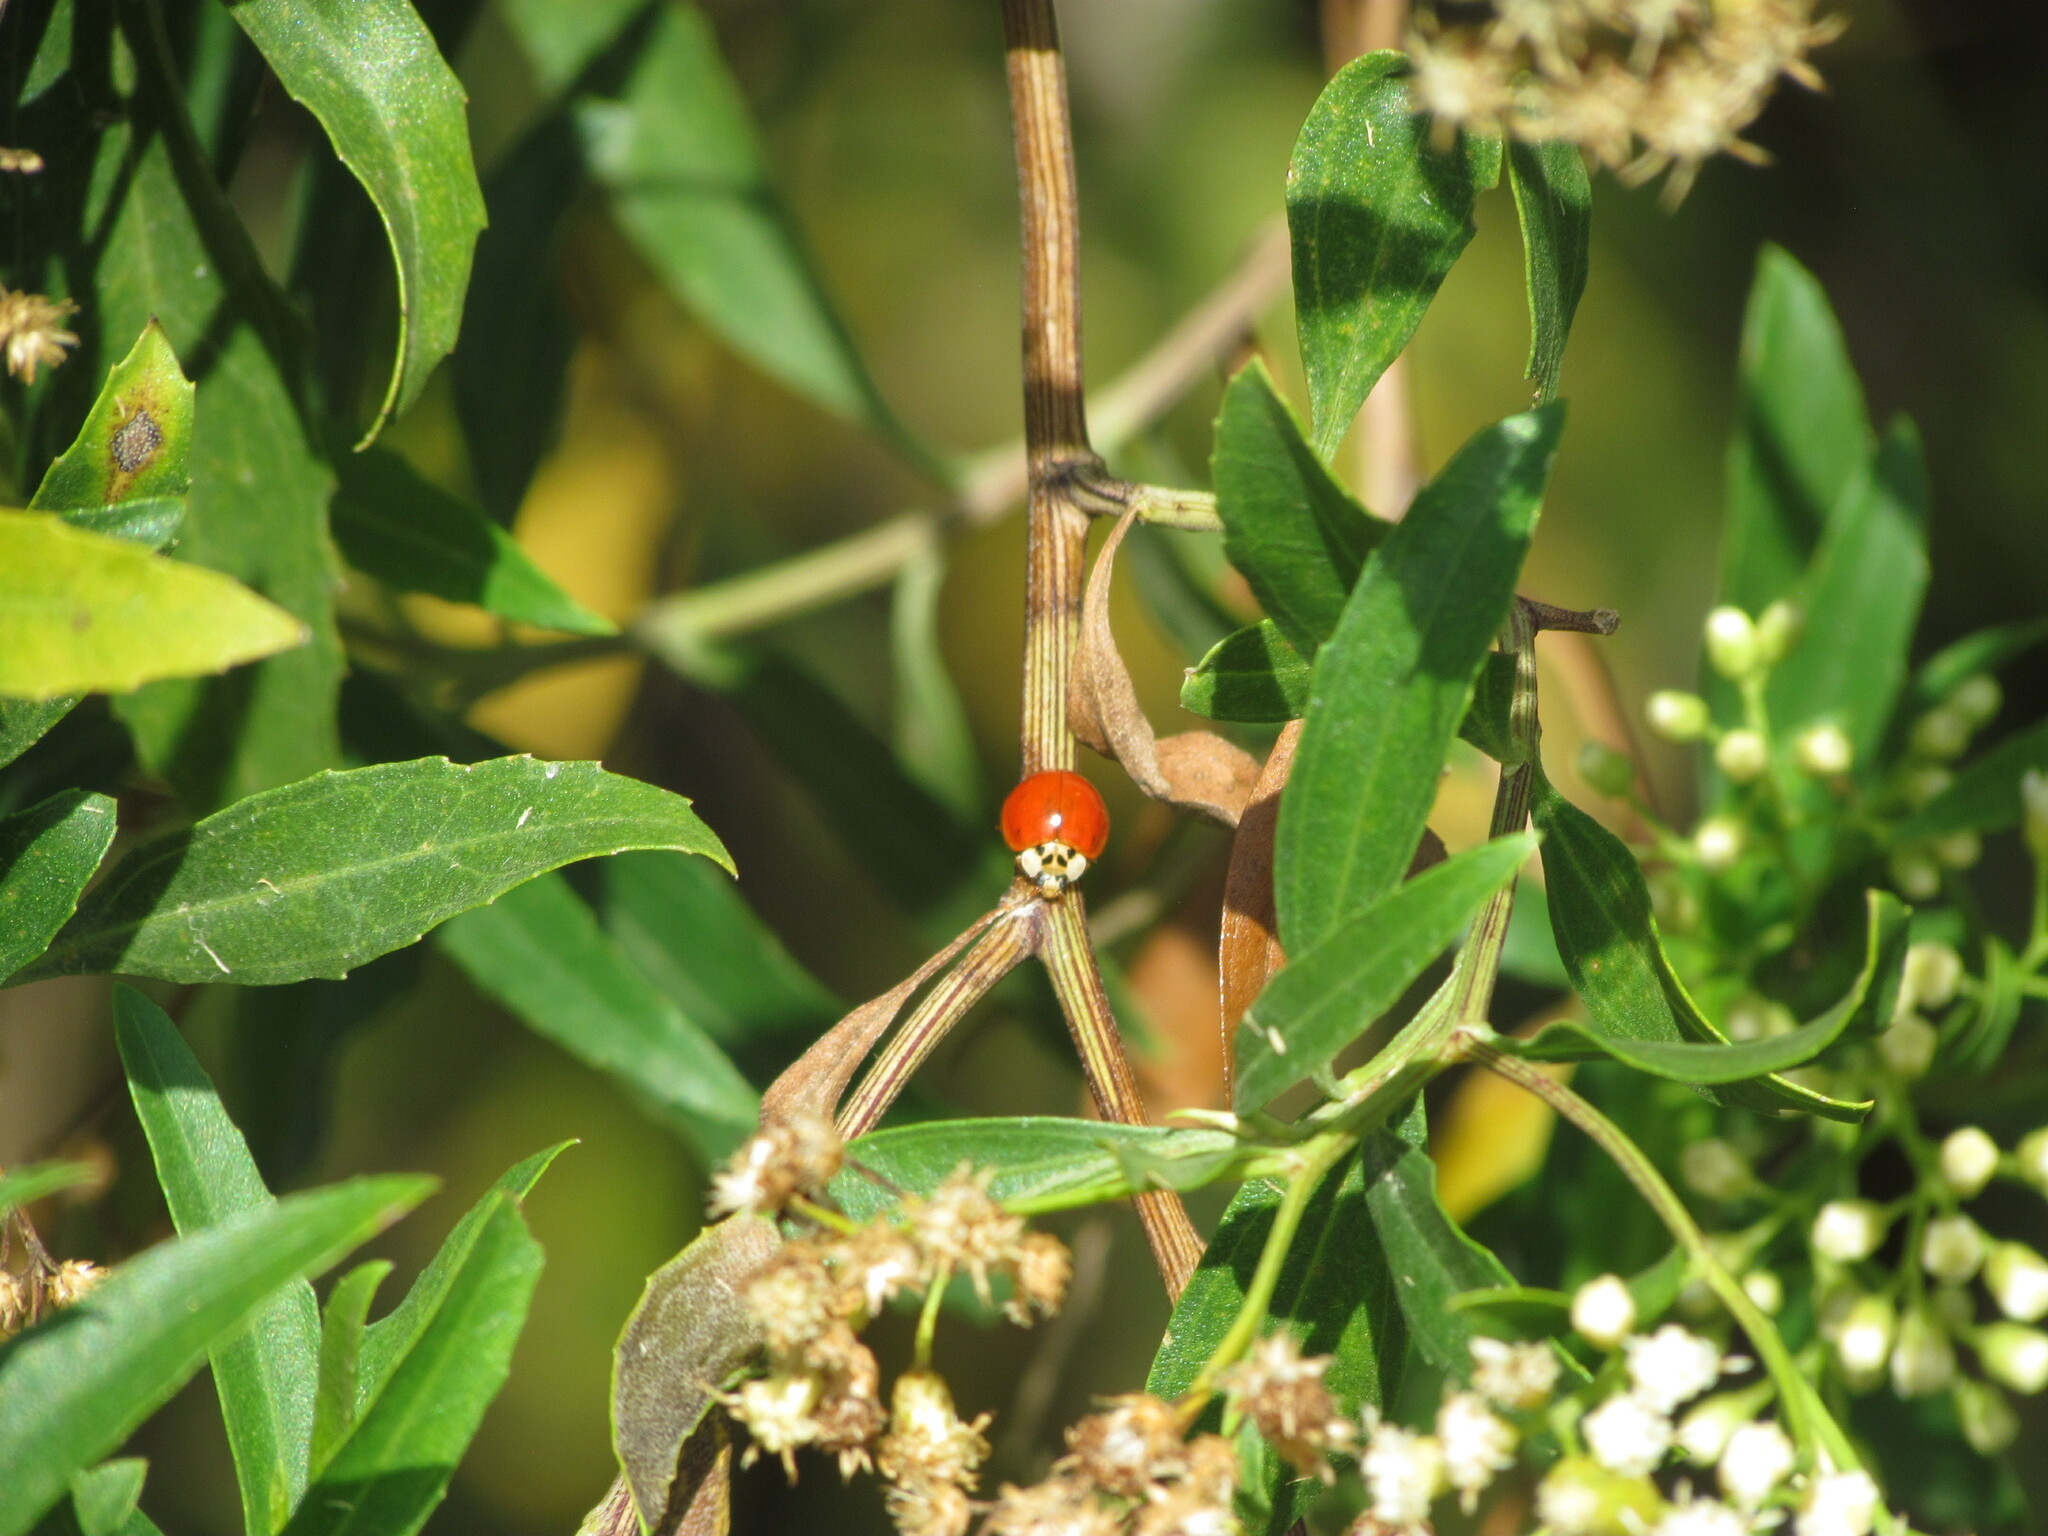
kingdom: Animalia
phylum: Arthropoda
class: Insecta
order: Coleoptera
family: Coccinellidae
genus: Harmonia
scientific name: Harmonia axyridis
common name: Harlequin ladybird
